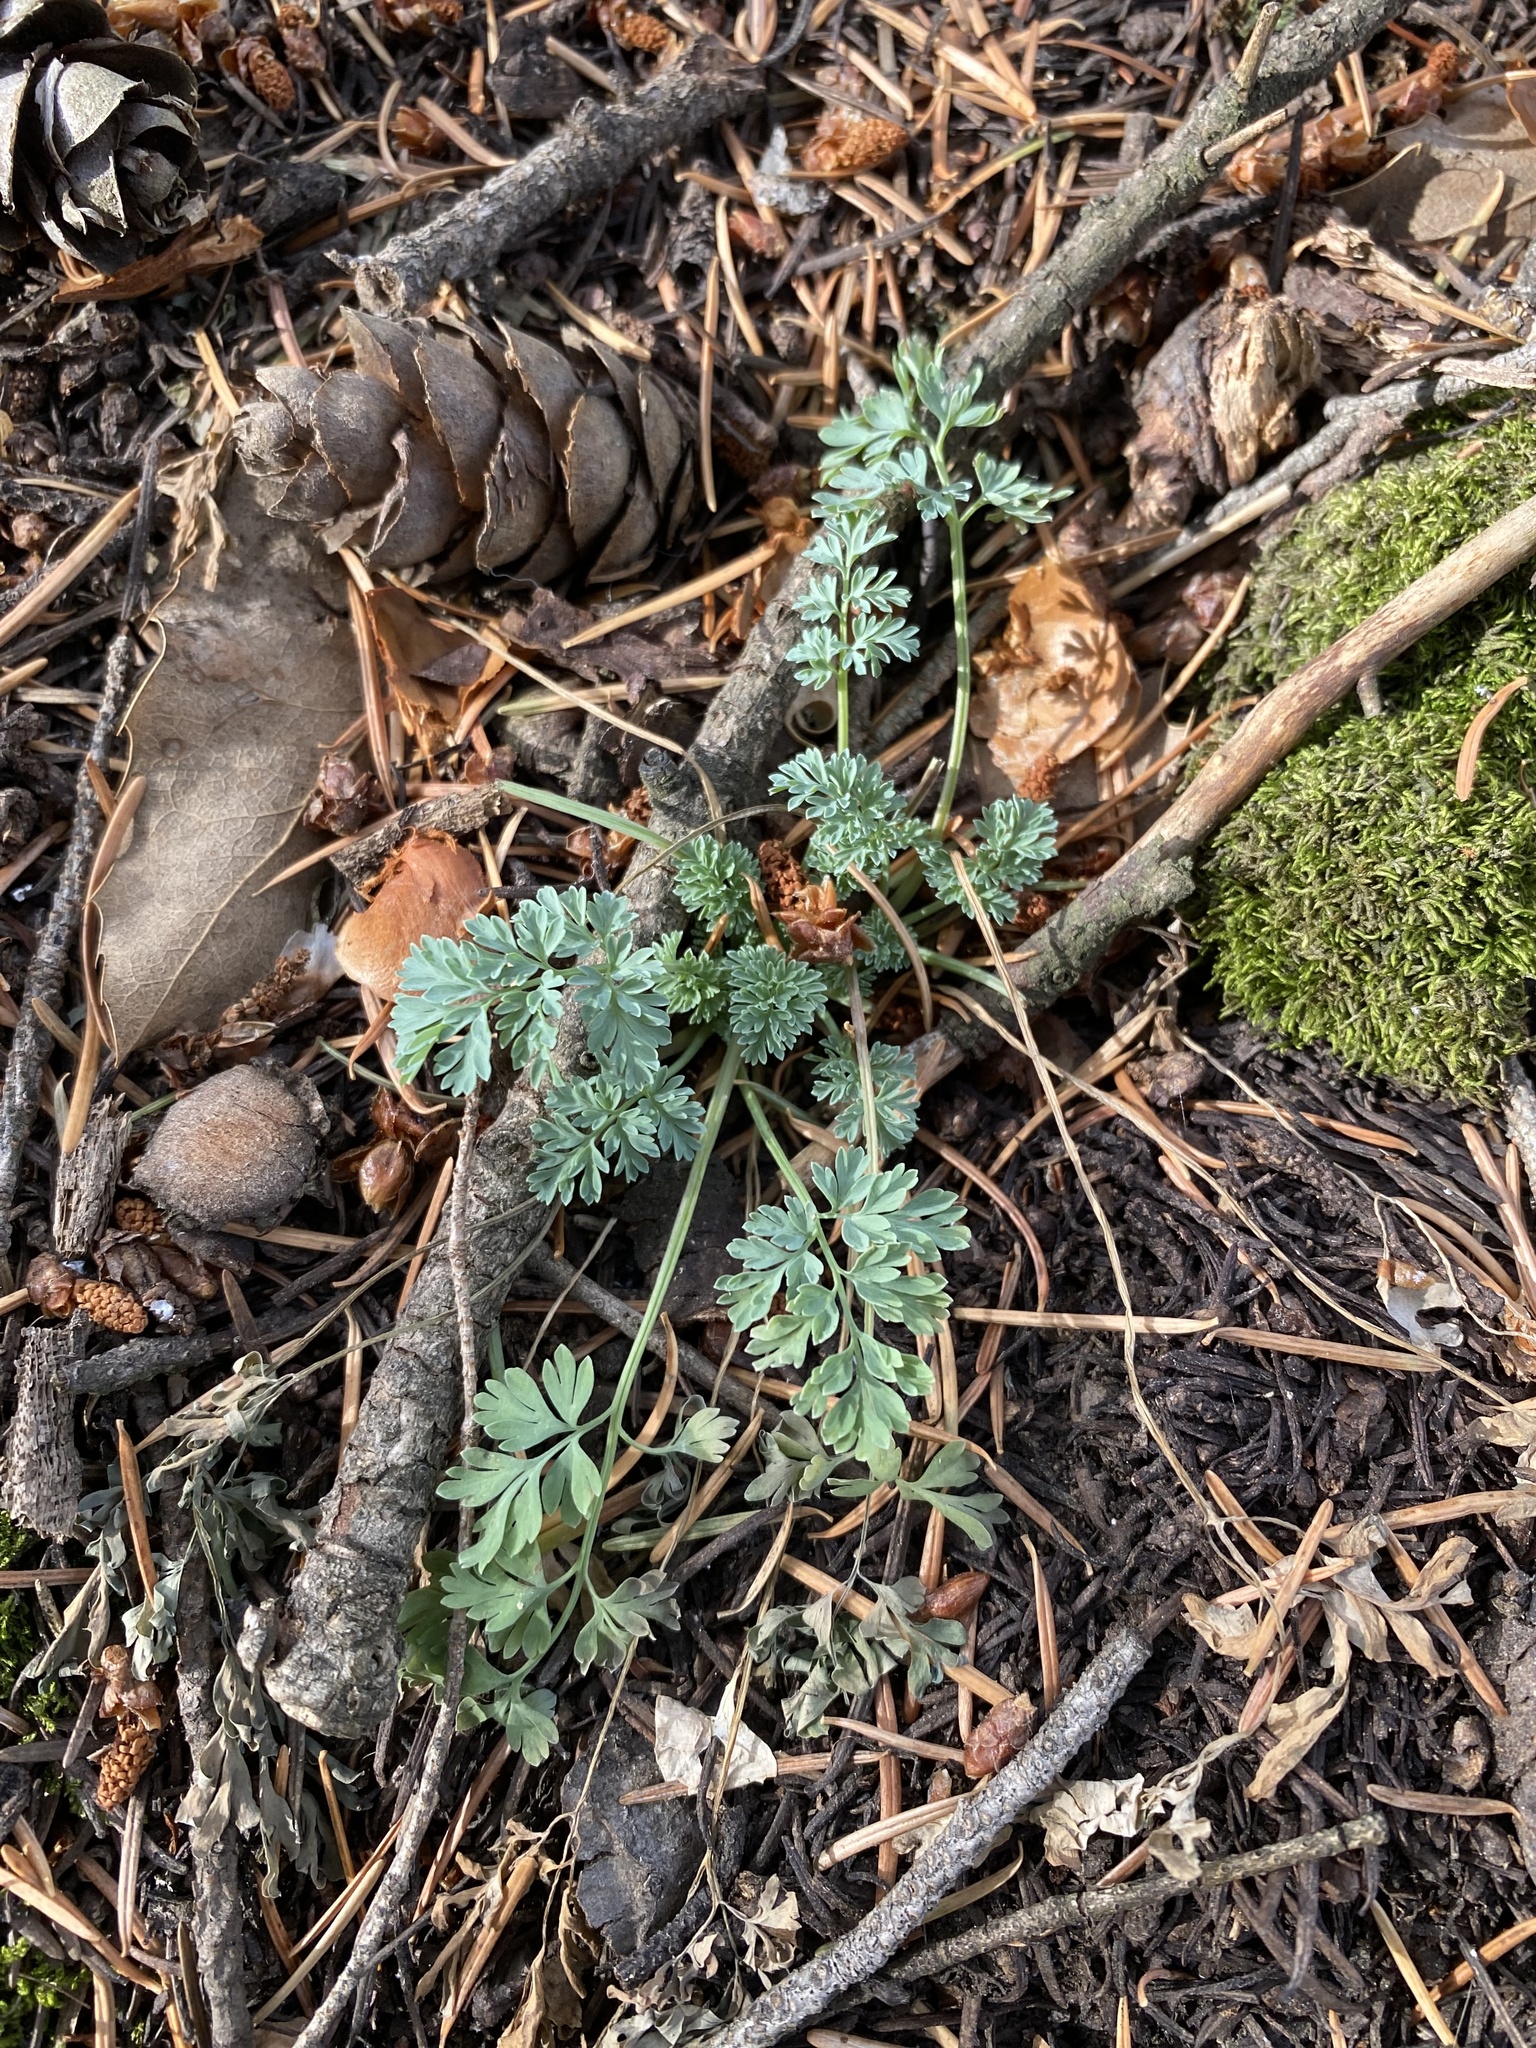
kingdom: Plantae
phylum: Tracheophyta
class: Magnoliopsida
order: Ranunculales
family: Papaveraceae
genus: Corydalis
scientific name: Corydalis aurea
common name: Golden corydalis
